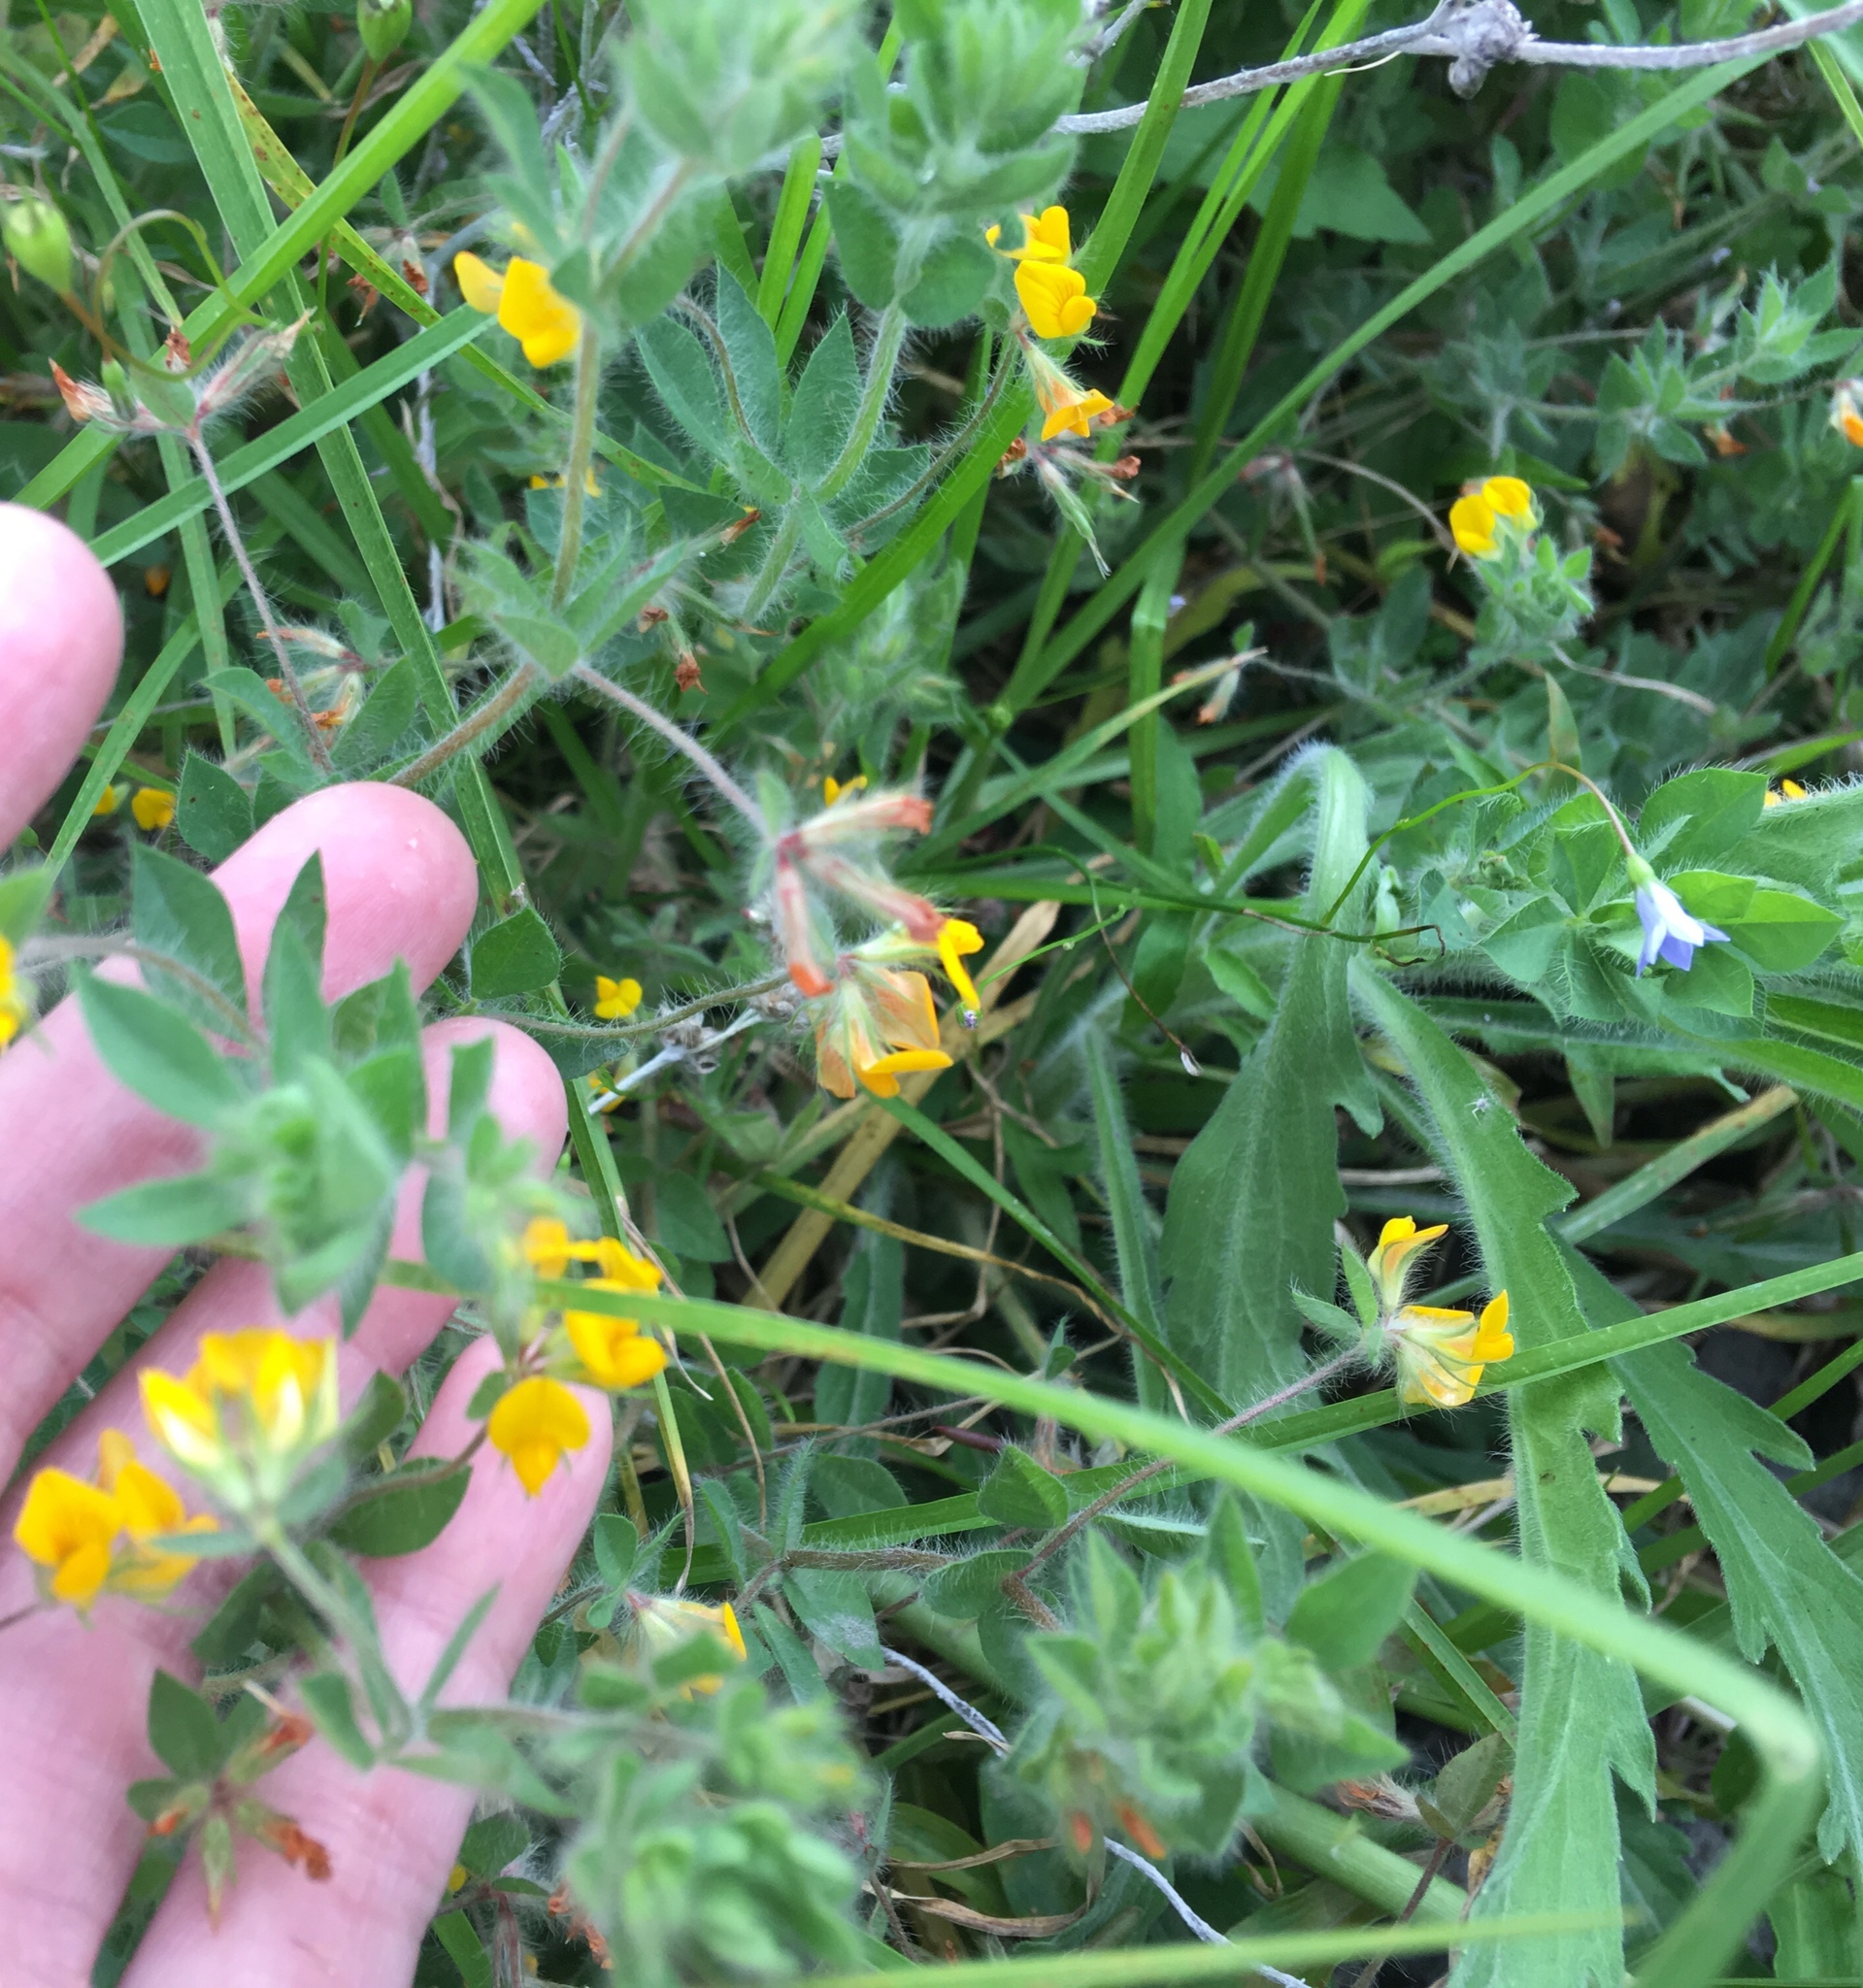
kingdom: Plantae
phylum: Tracheophyta
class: Magnoliopsida
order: Fabales
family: Fabaceae
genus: Lotus
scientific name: Lotus subbiflorus
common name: Hairy bird's-foot trefoil
